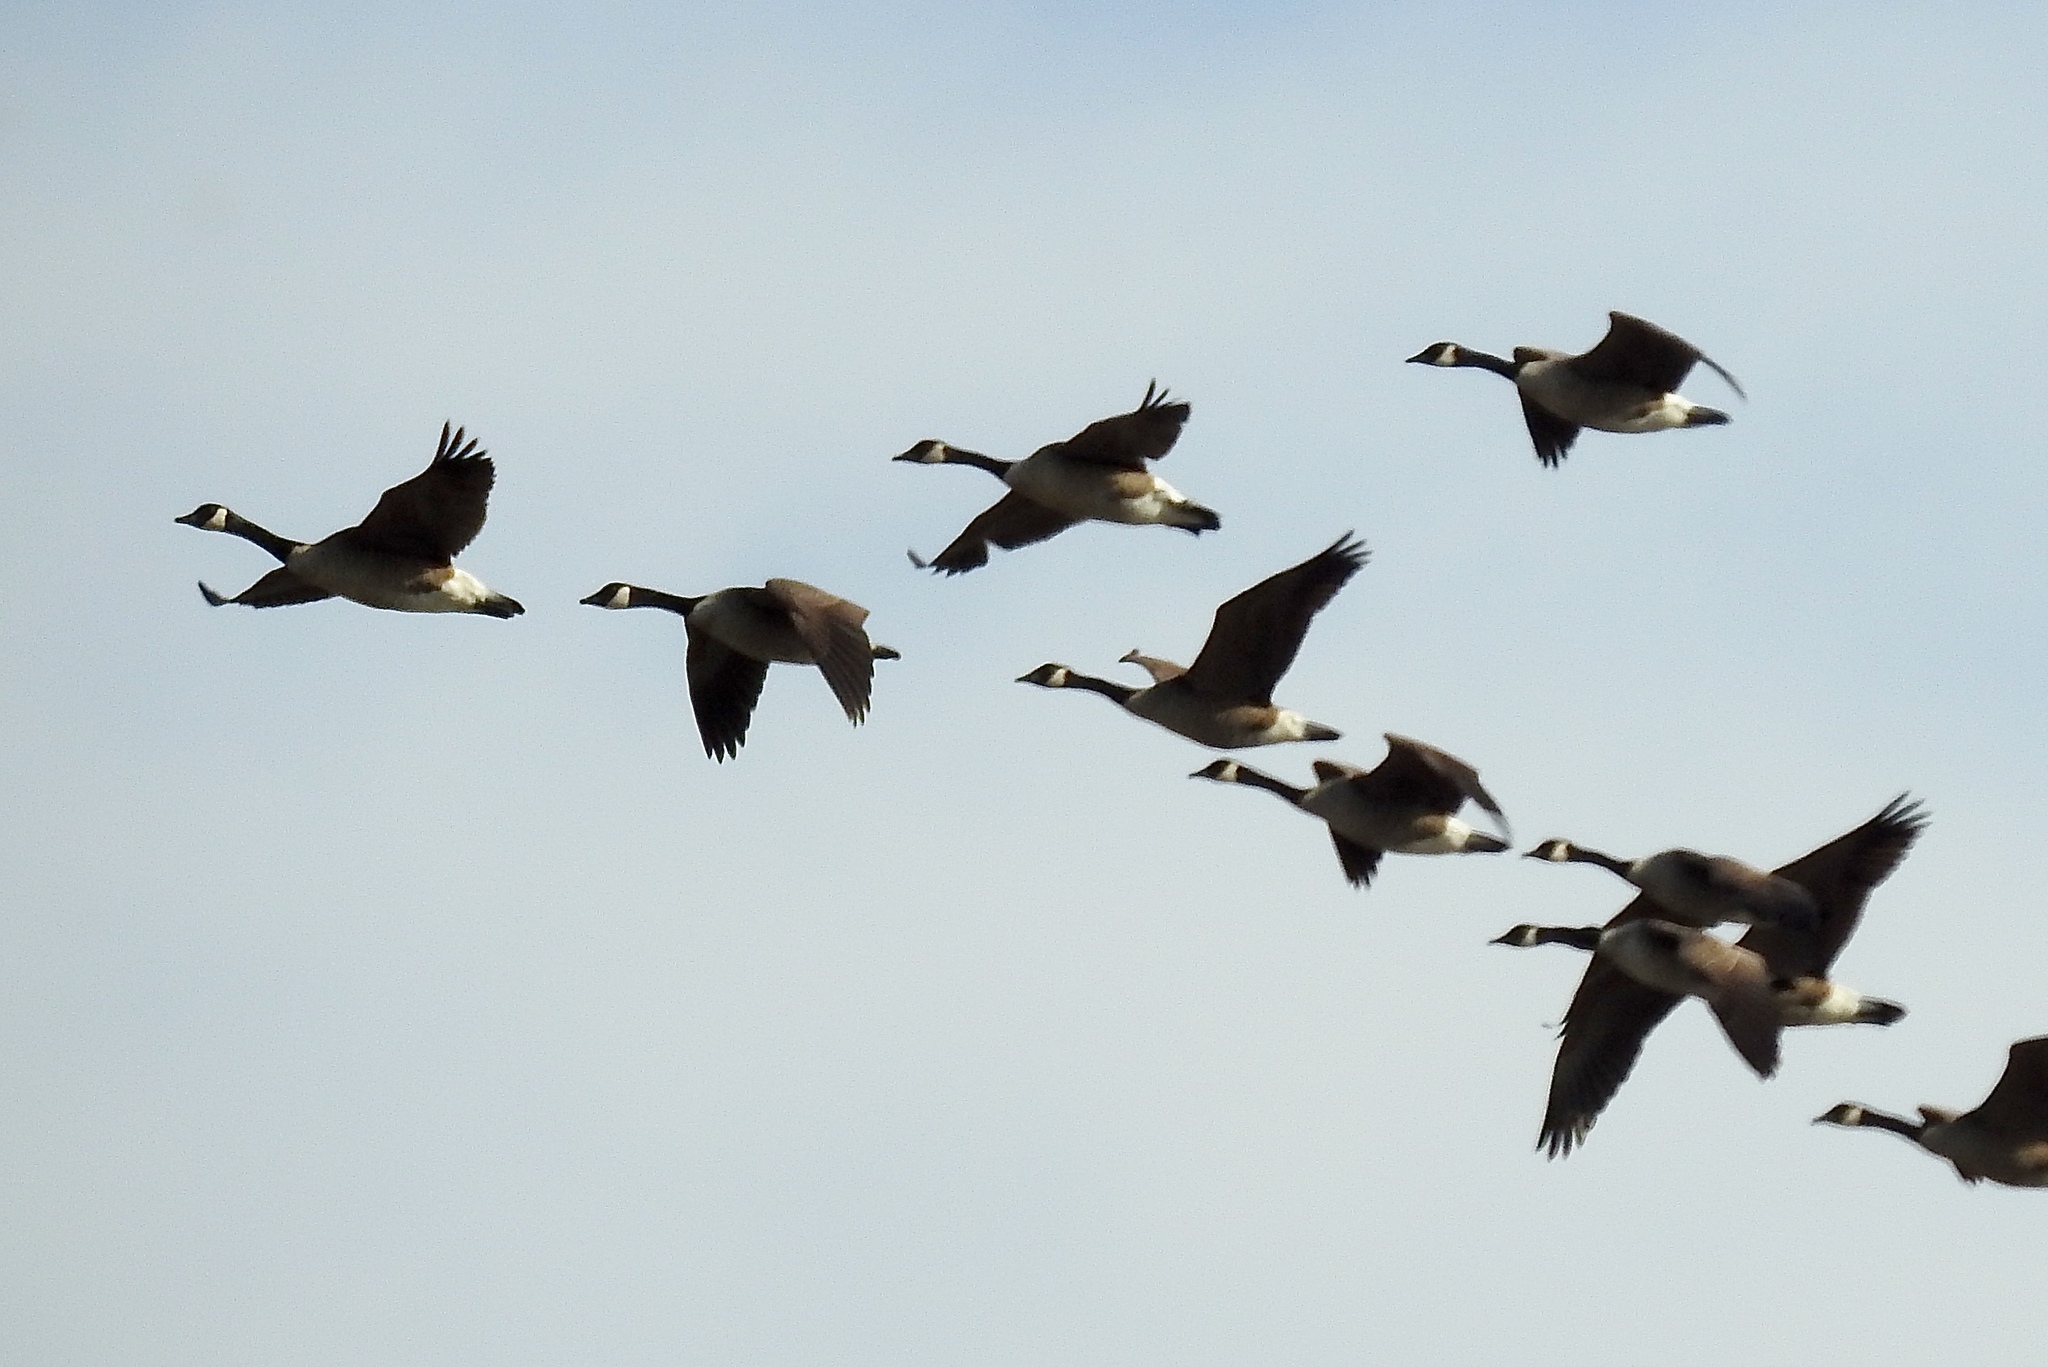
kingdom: Animalia
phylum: Chordata
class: Aves
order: Anseriformes
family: Anatidae
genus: Branta
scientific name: Branta canadensis
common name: Canada goose
